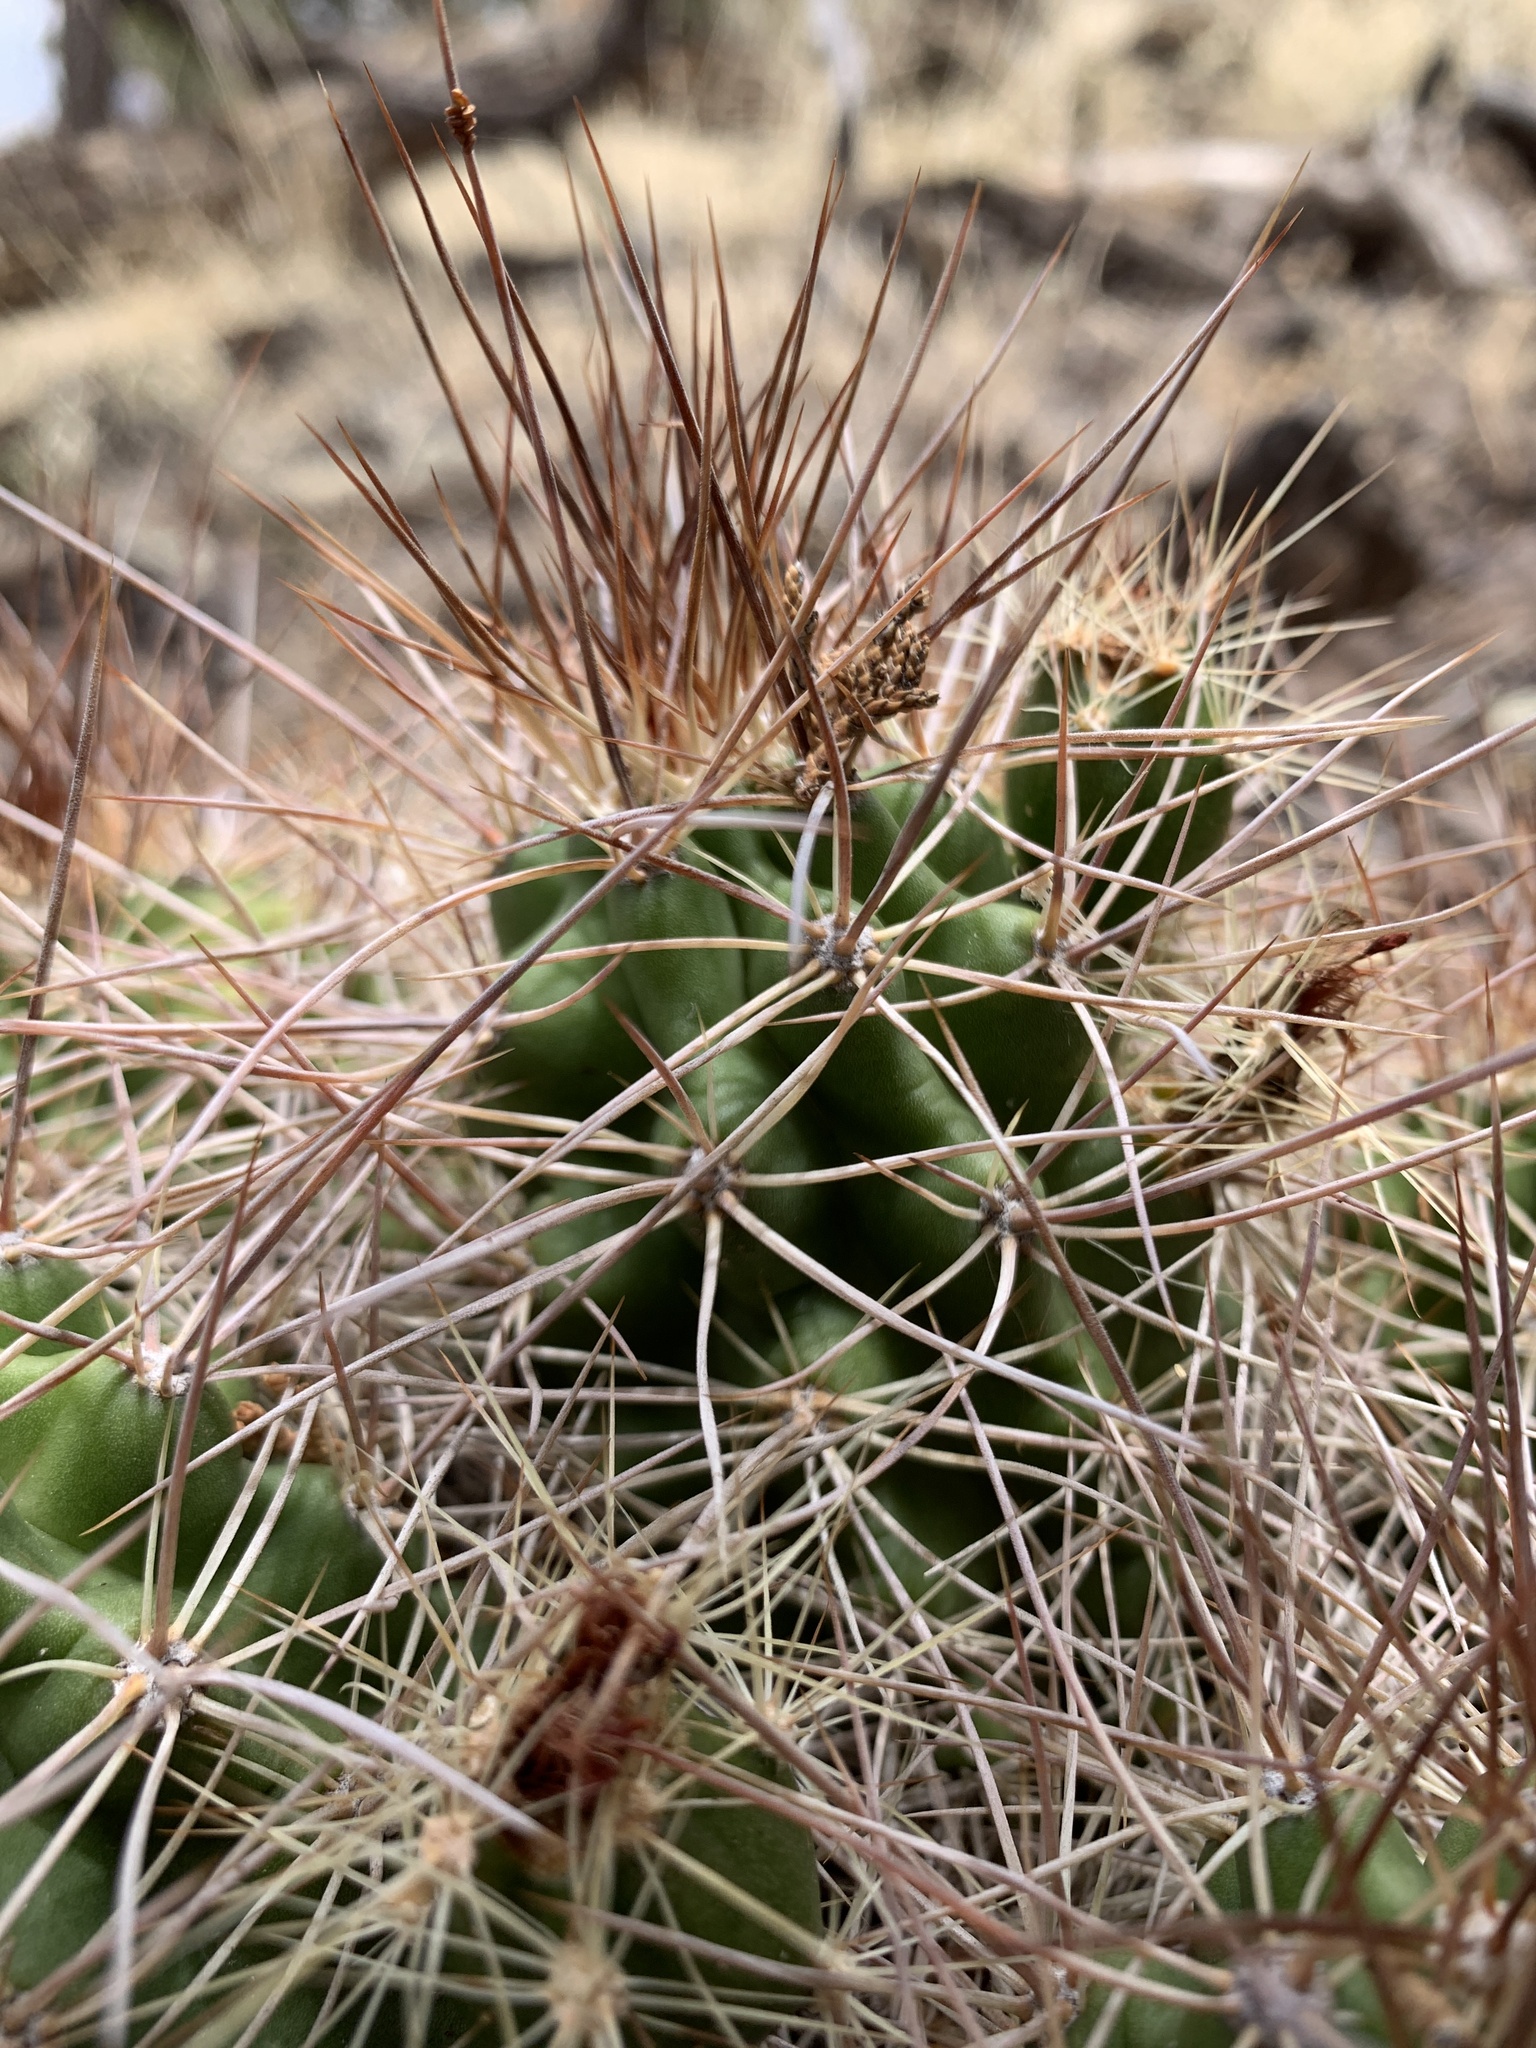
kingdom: Plantae
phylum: Tracheophyta
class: Magnoliopsida
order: Caryophyllales
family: Cactaceae
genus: Echinocereus
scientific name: Echinocereus triglochidiatus
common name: Claretcup hedgehog
